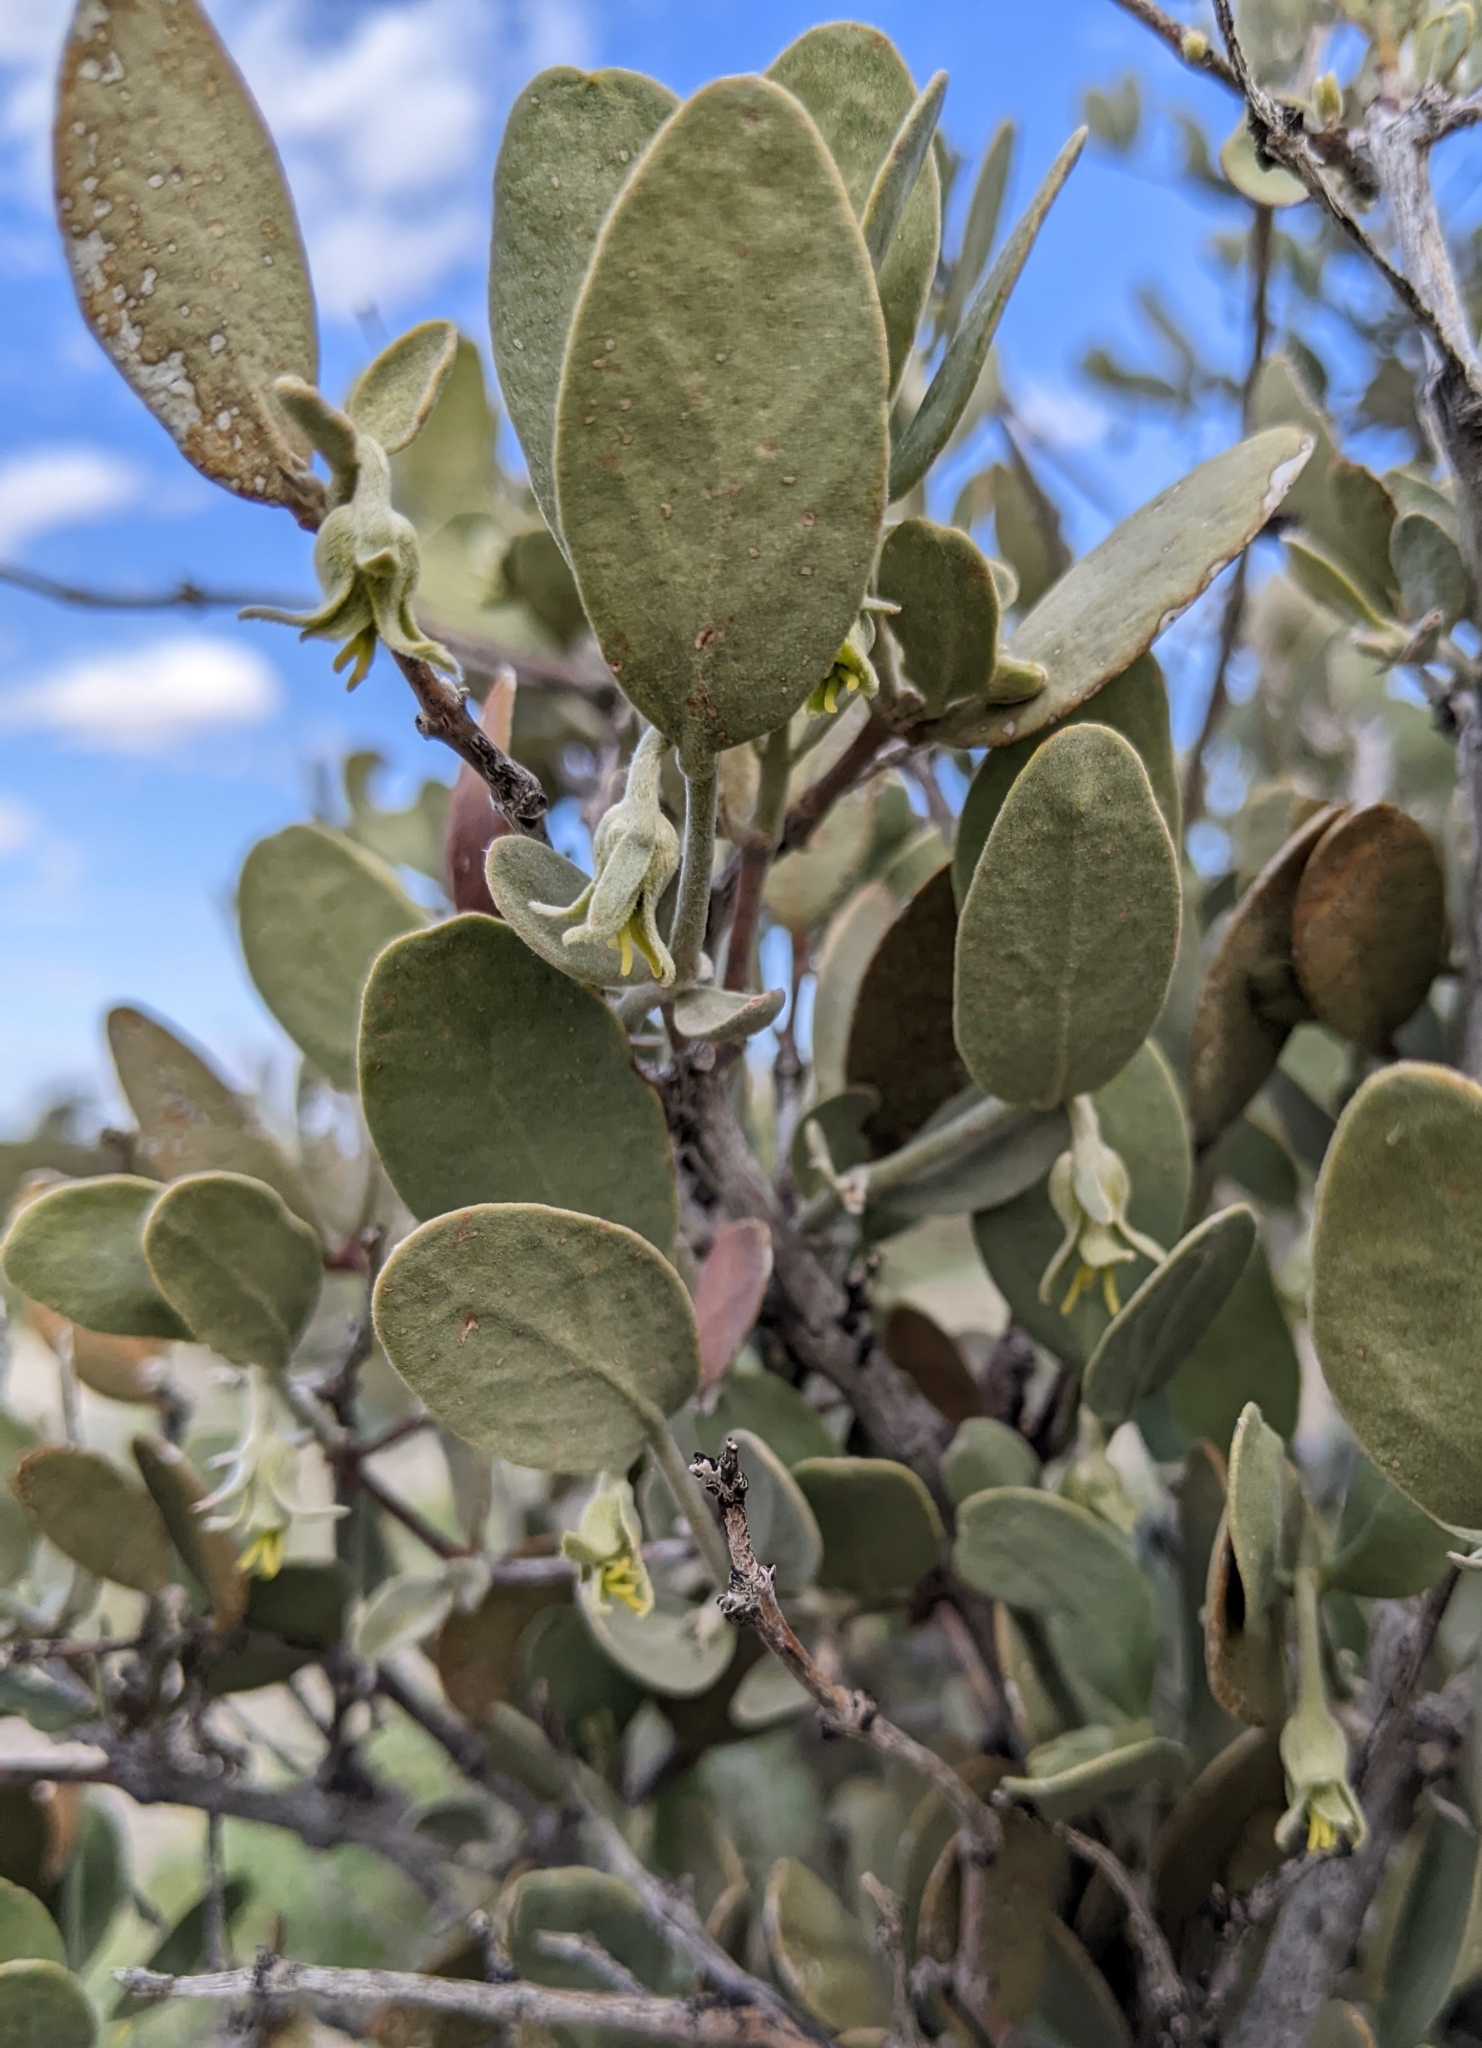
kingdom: Plantae
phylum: Tracheophyta
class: Magnoliopsida
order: Caryophyllales
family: Simmondsiaceae
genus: Simmondsia
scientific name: Simmondsia chinensis
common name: Jojoba
